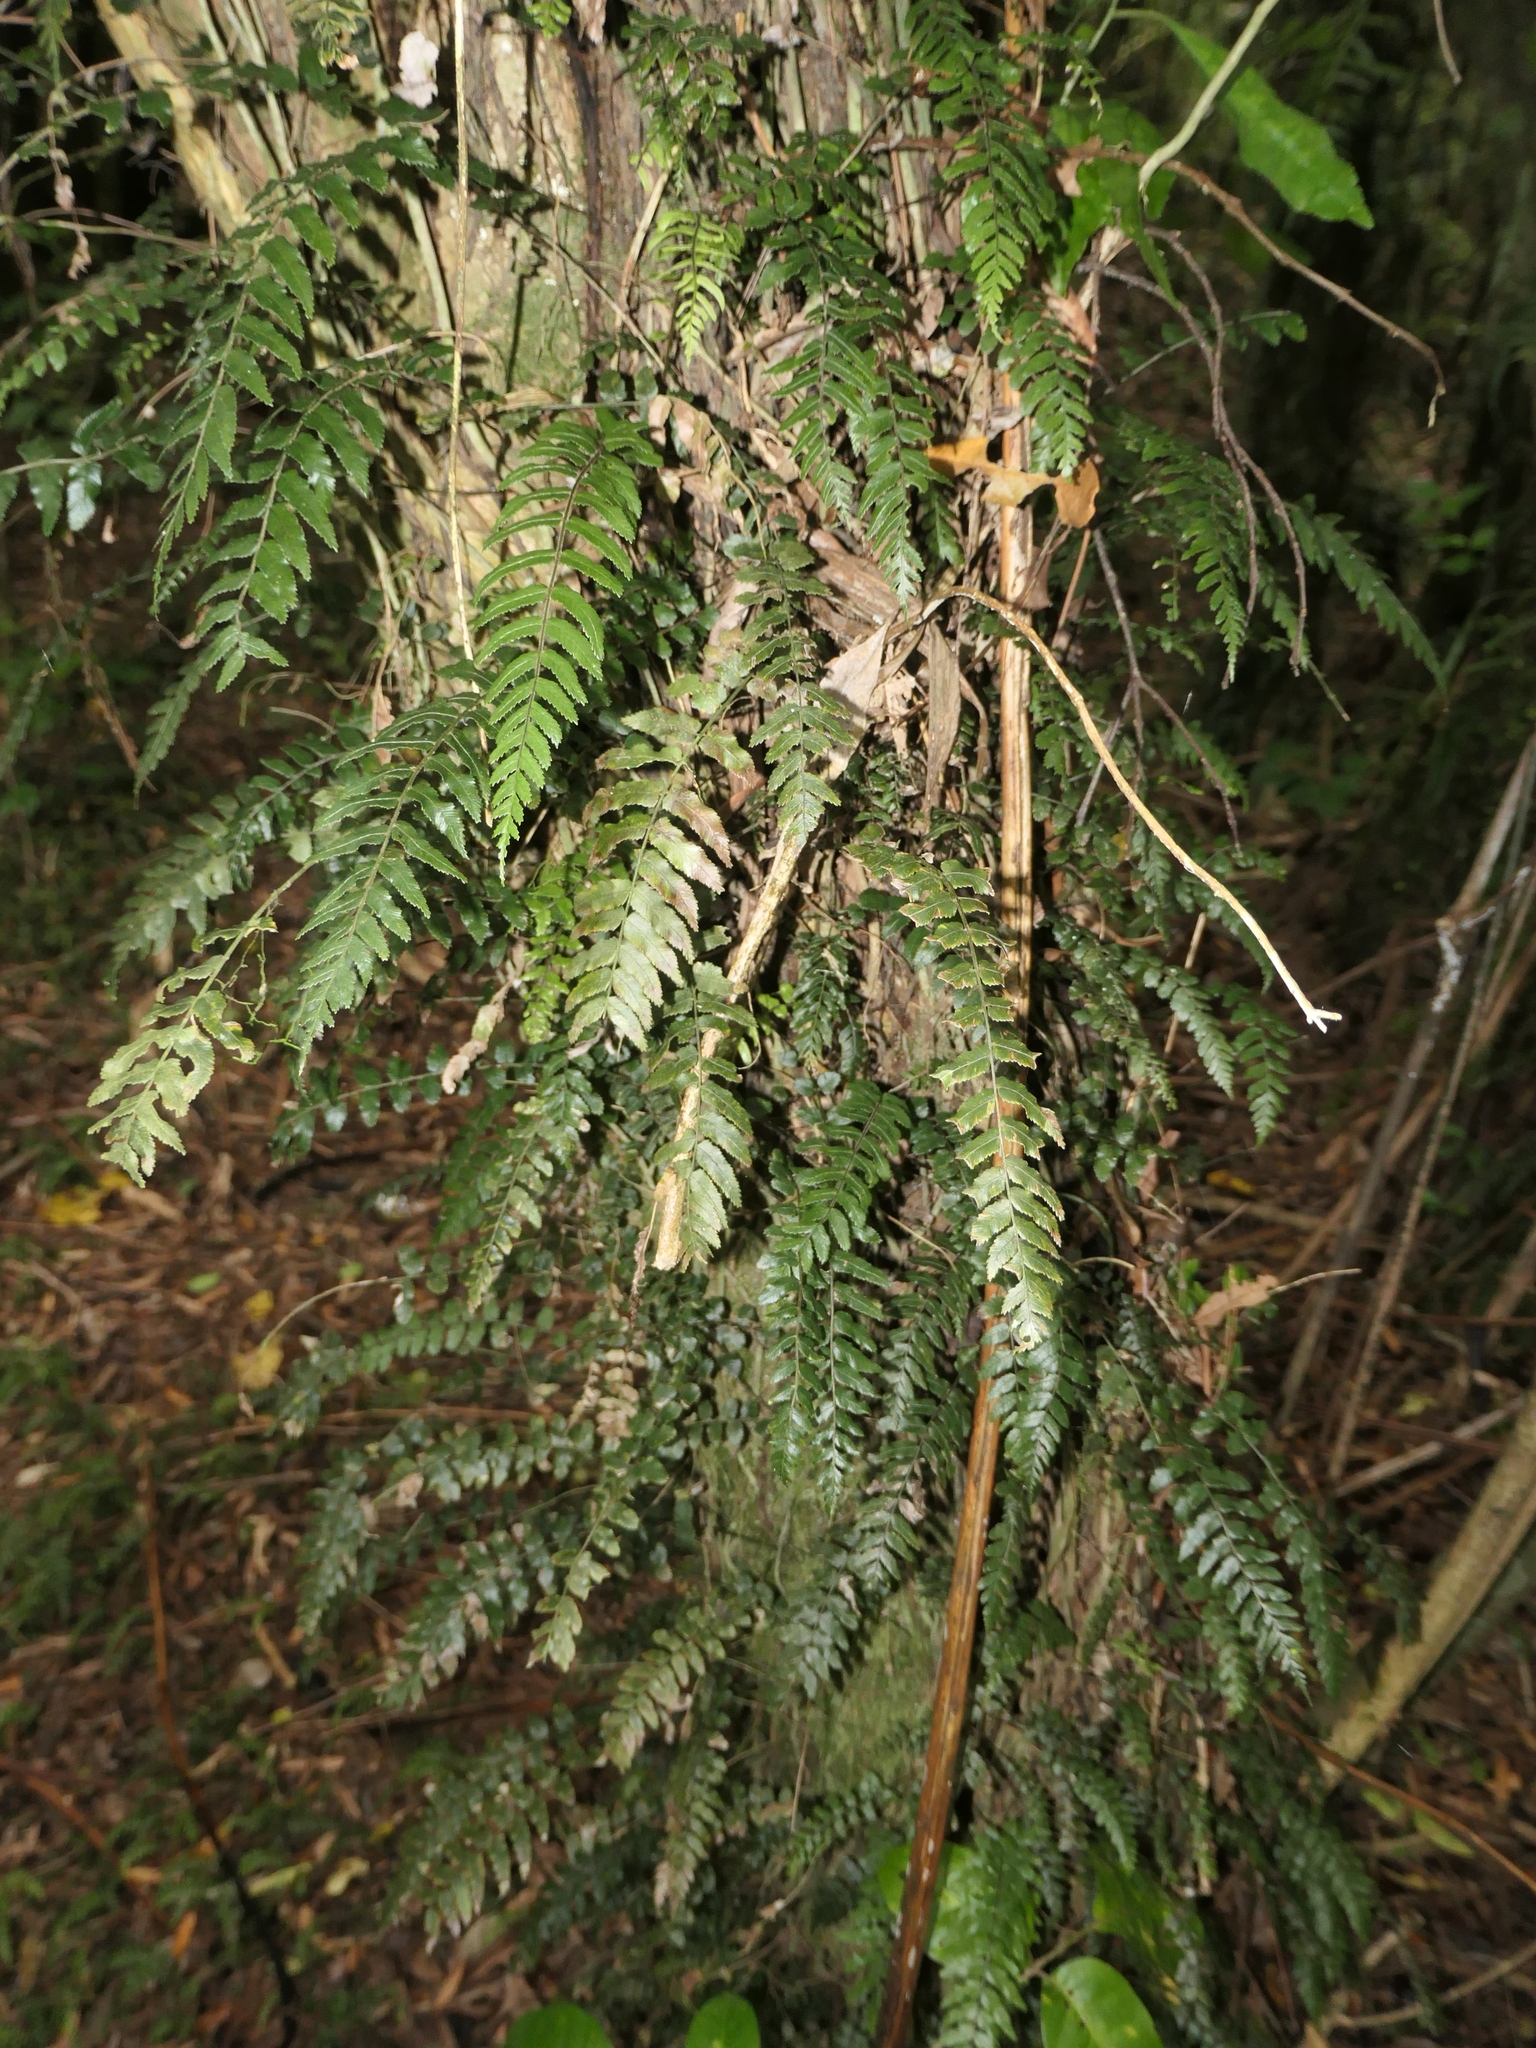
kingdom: Plantae
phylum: Tracheophyta
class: Polypodiopsida
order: Polypodiales
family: Blechnaceae
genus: Icarus
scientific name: Icarus filiformis
